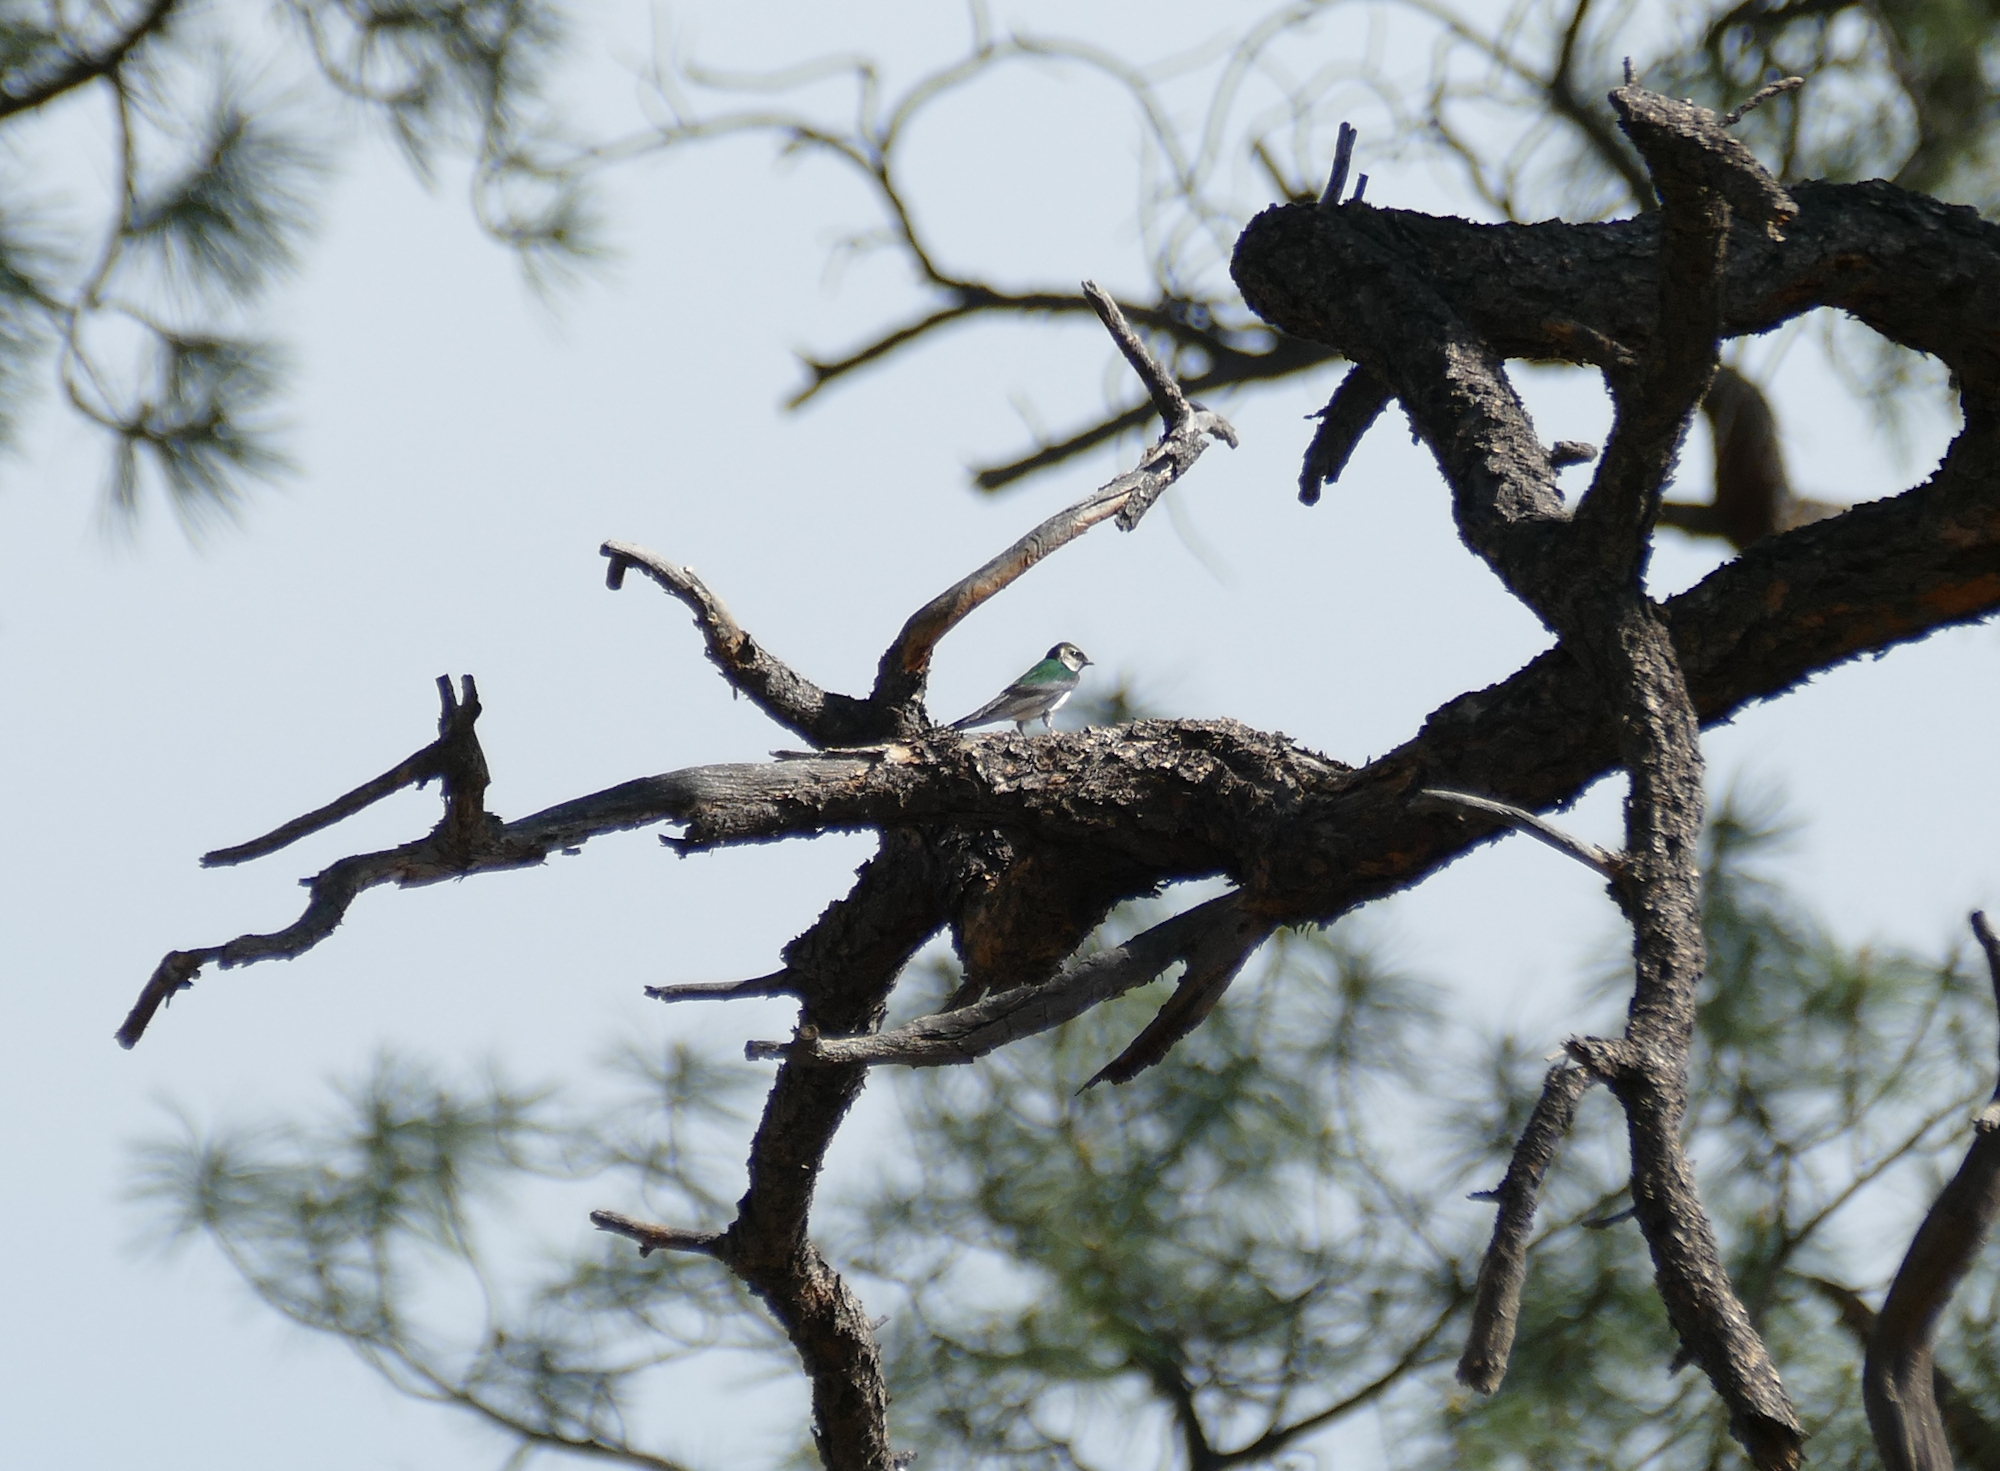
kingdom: Animalia
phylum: Chordata
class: Aves
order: Passeriformes
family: Hirundinidae
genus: Tachycineta
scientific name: Tachycineta thalassina
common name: Violet-green swallow
